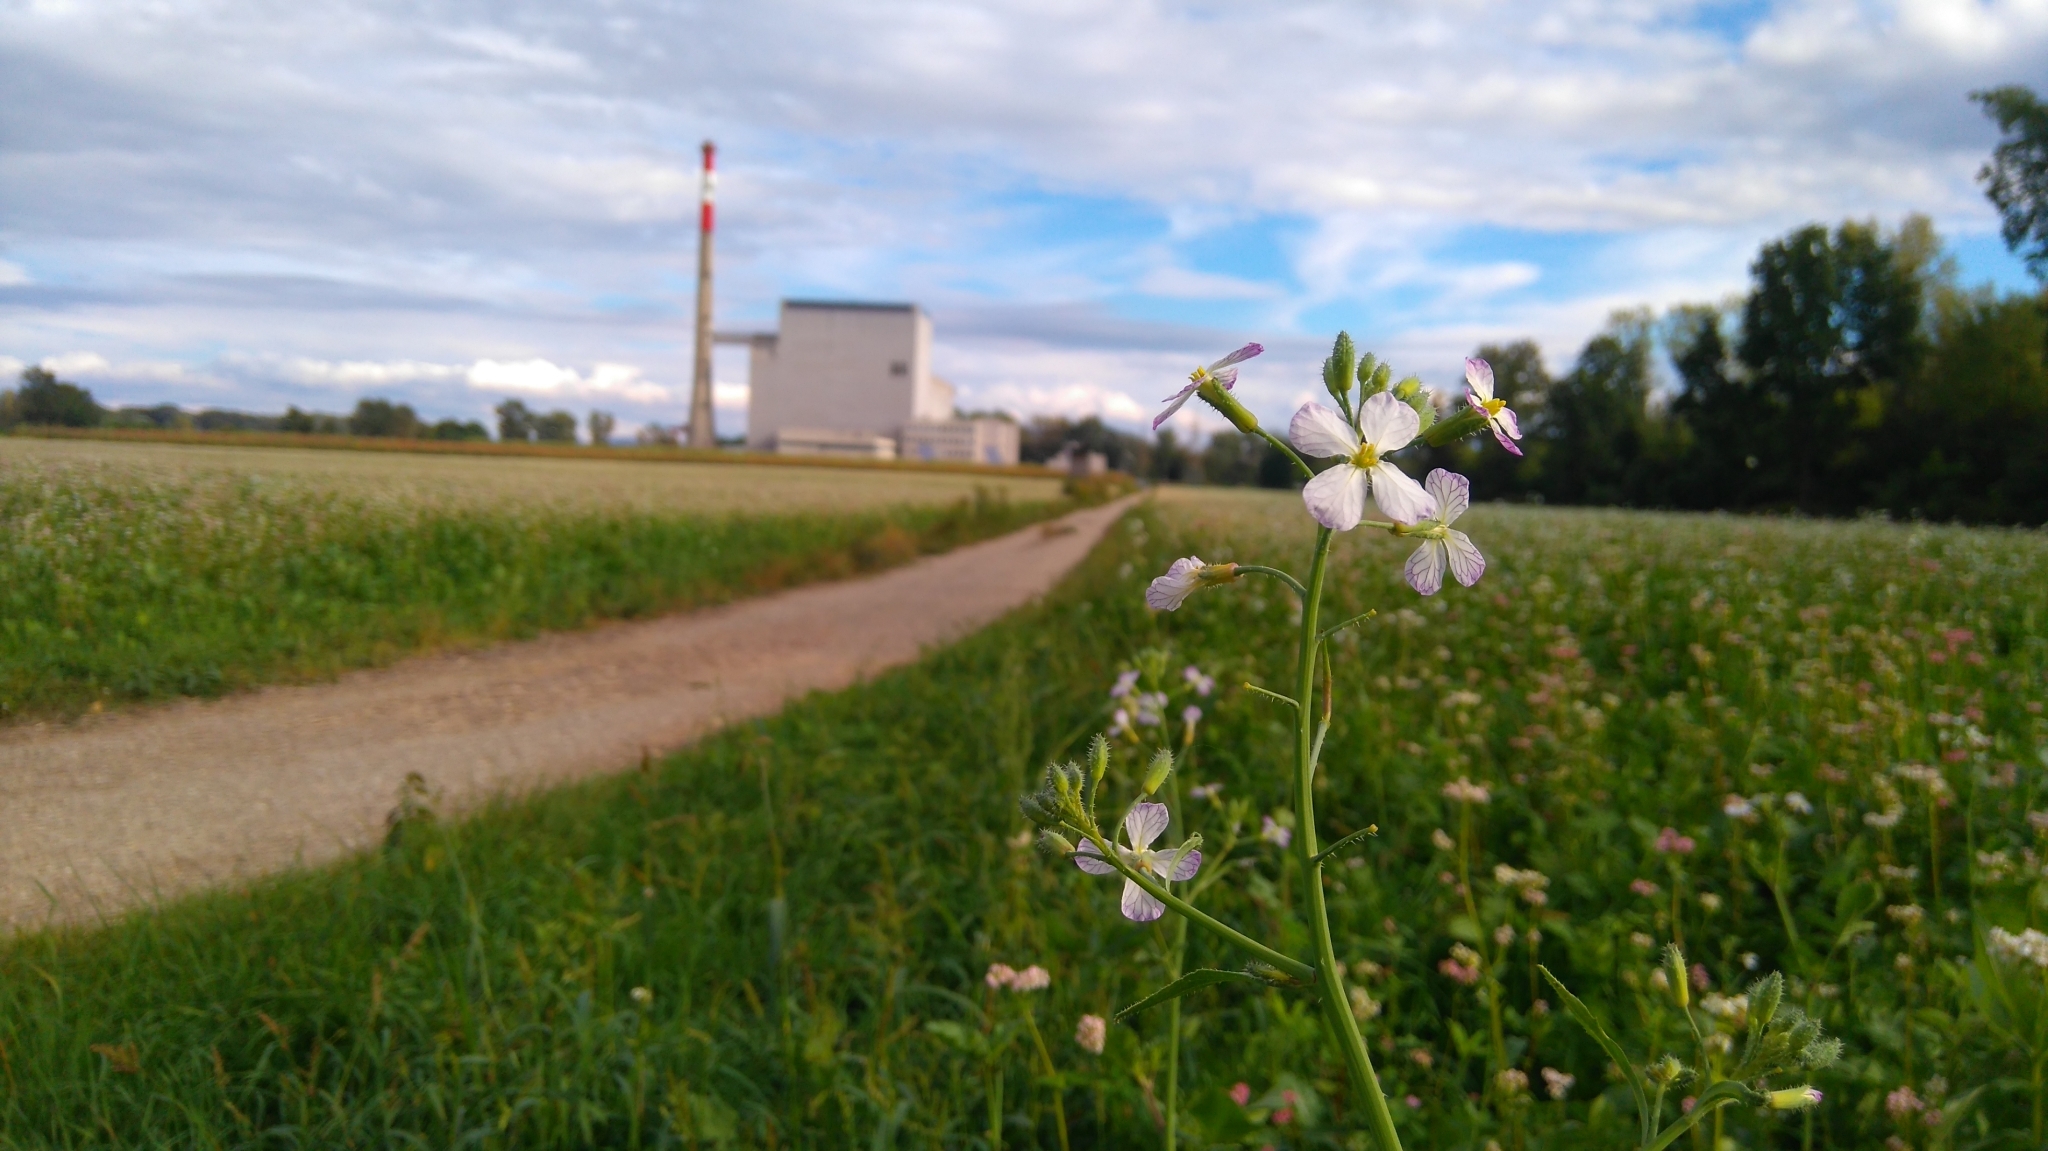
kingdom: Plantae
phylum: Tracheophyta
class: Magnoliopsida
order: Brassicales
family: Brassicaceae
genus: Raphanus
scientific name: Raphanus sativus
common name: Cultivated radish
